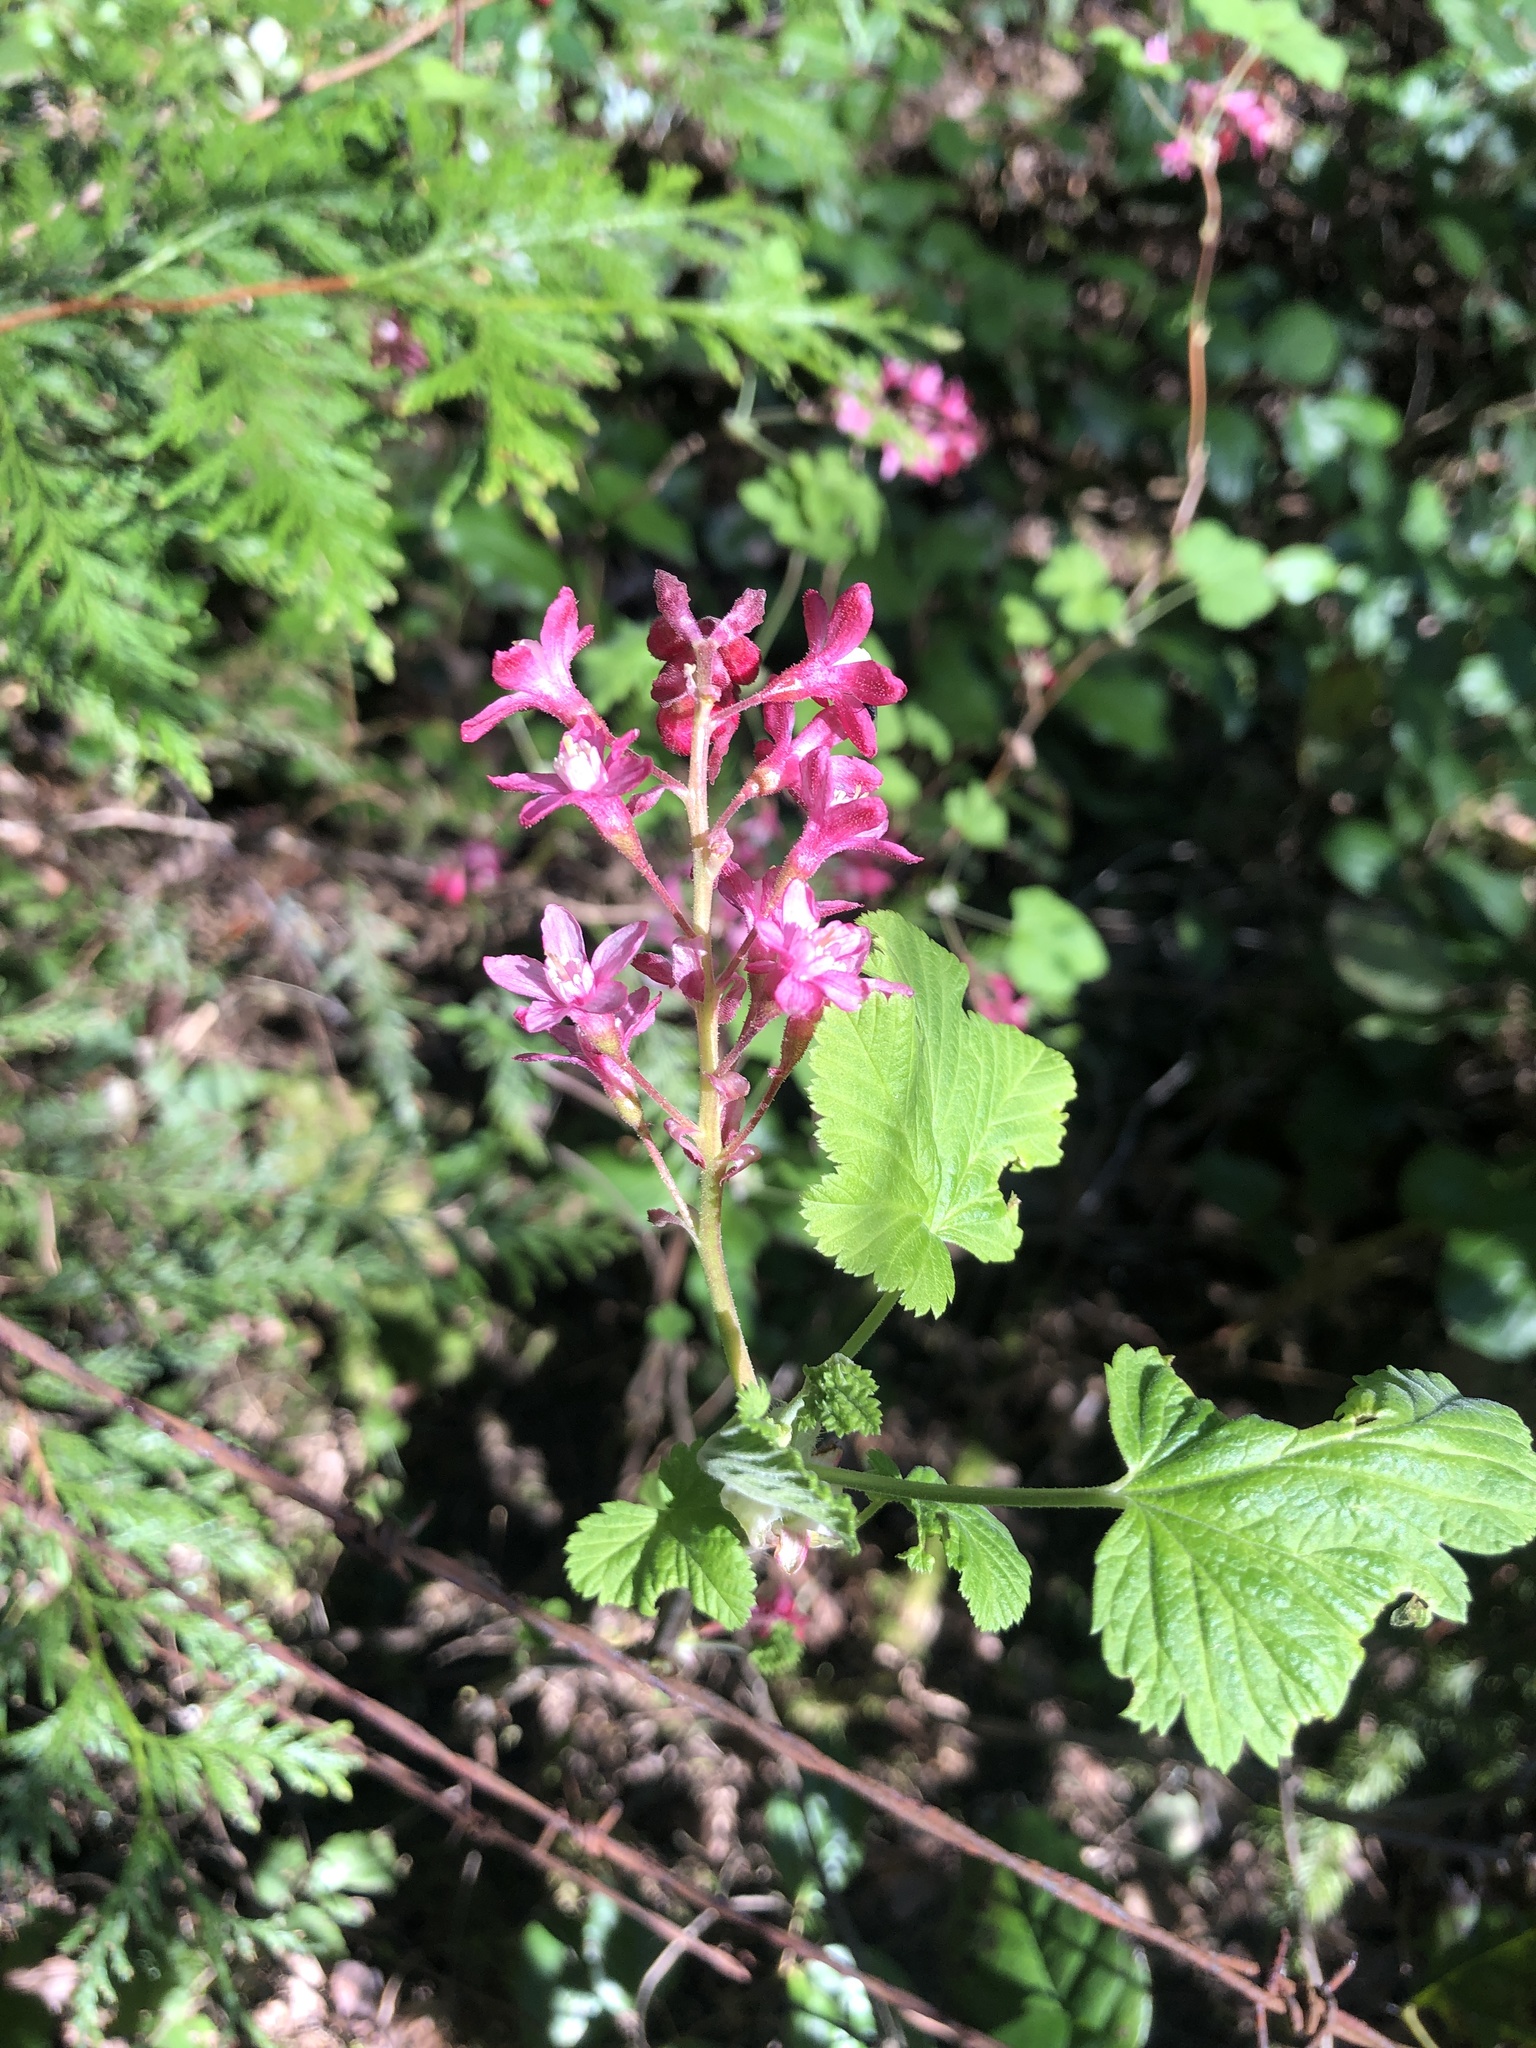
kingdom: Plantae
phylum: Tracheophyta
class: Magnoliopsida
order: Saxifragales
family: Grossulariaceae
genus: Ribes
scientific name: Ribes sanguineum
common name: Flowering currant
